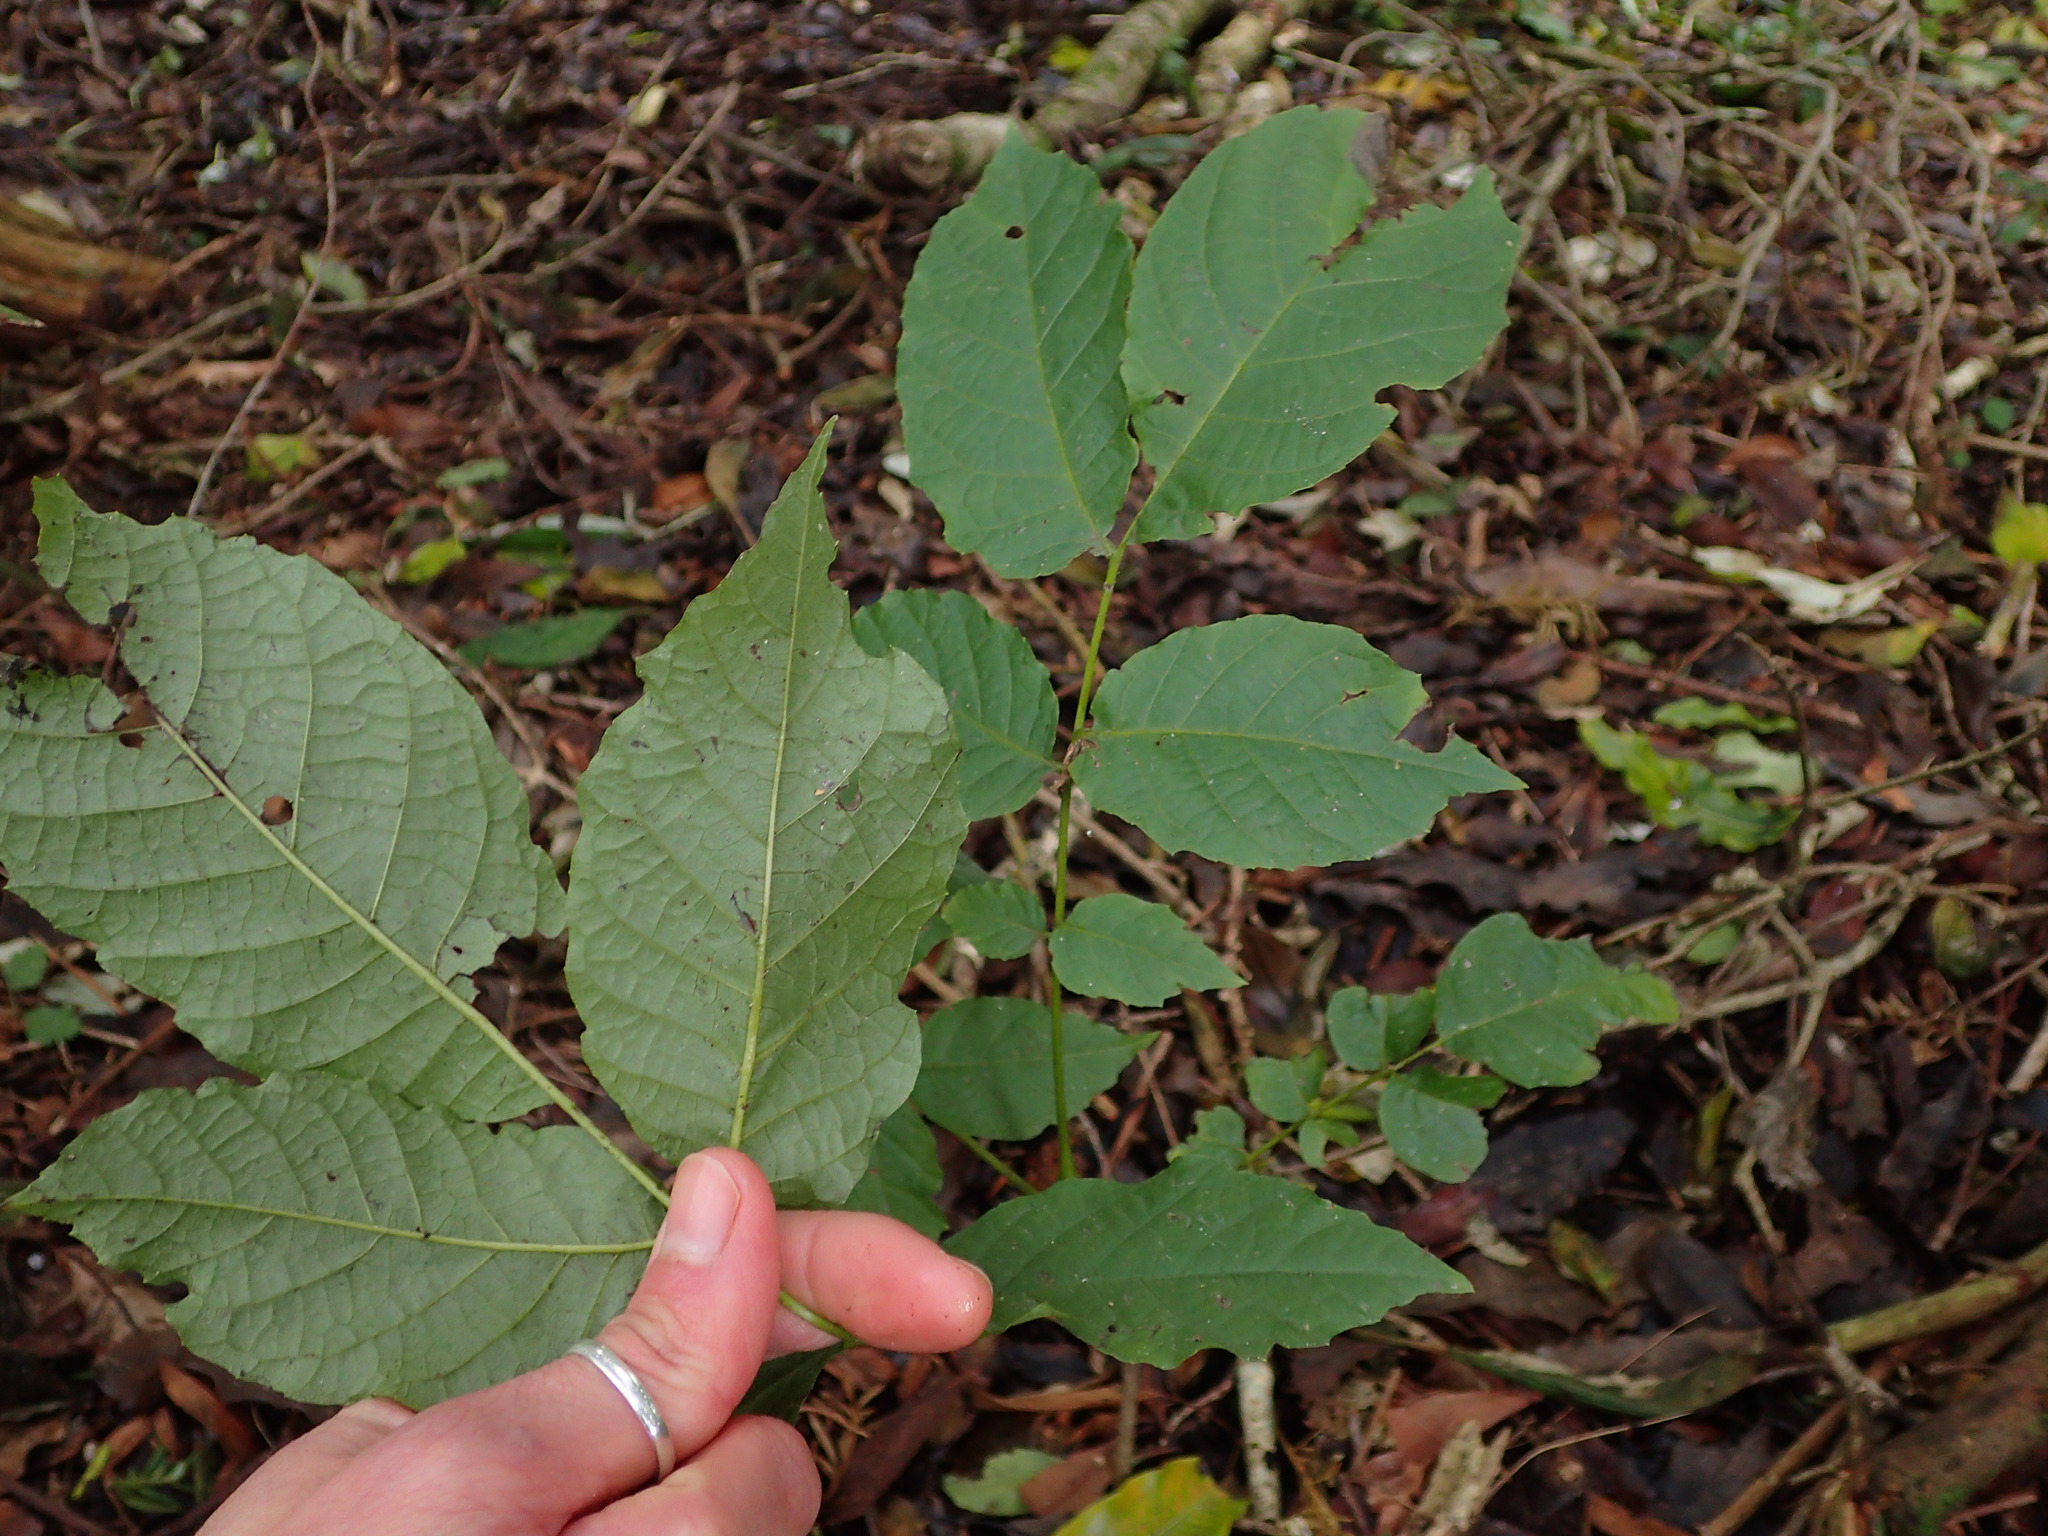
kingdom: Plantae
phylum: Tracheophyta
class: Magnoliopsida
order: Lamiales
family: Oleaceae
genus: Fraxinus
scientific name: Fraxinus excelsior
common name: European ash
